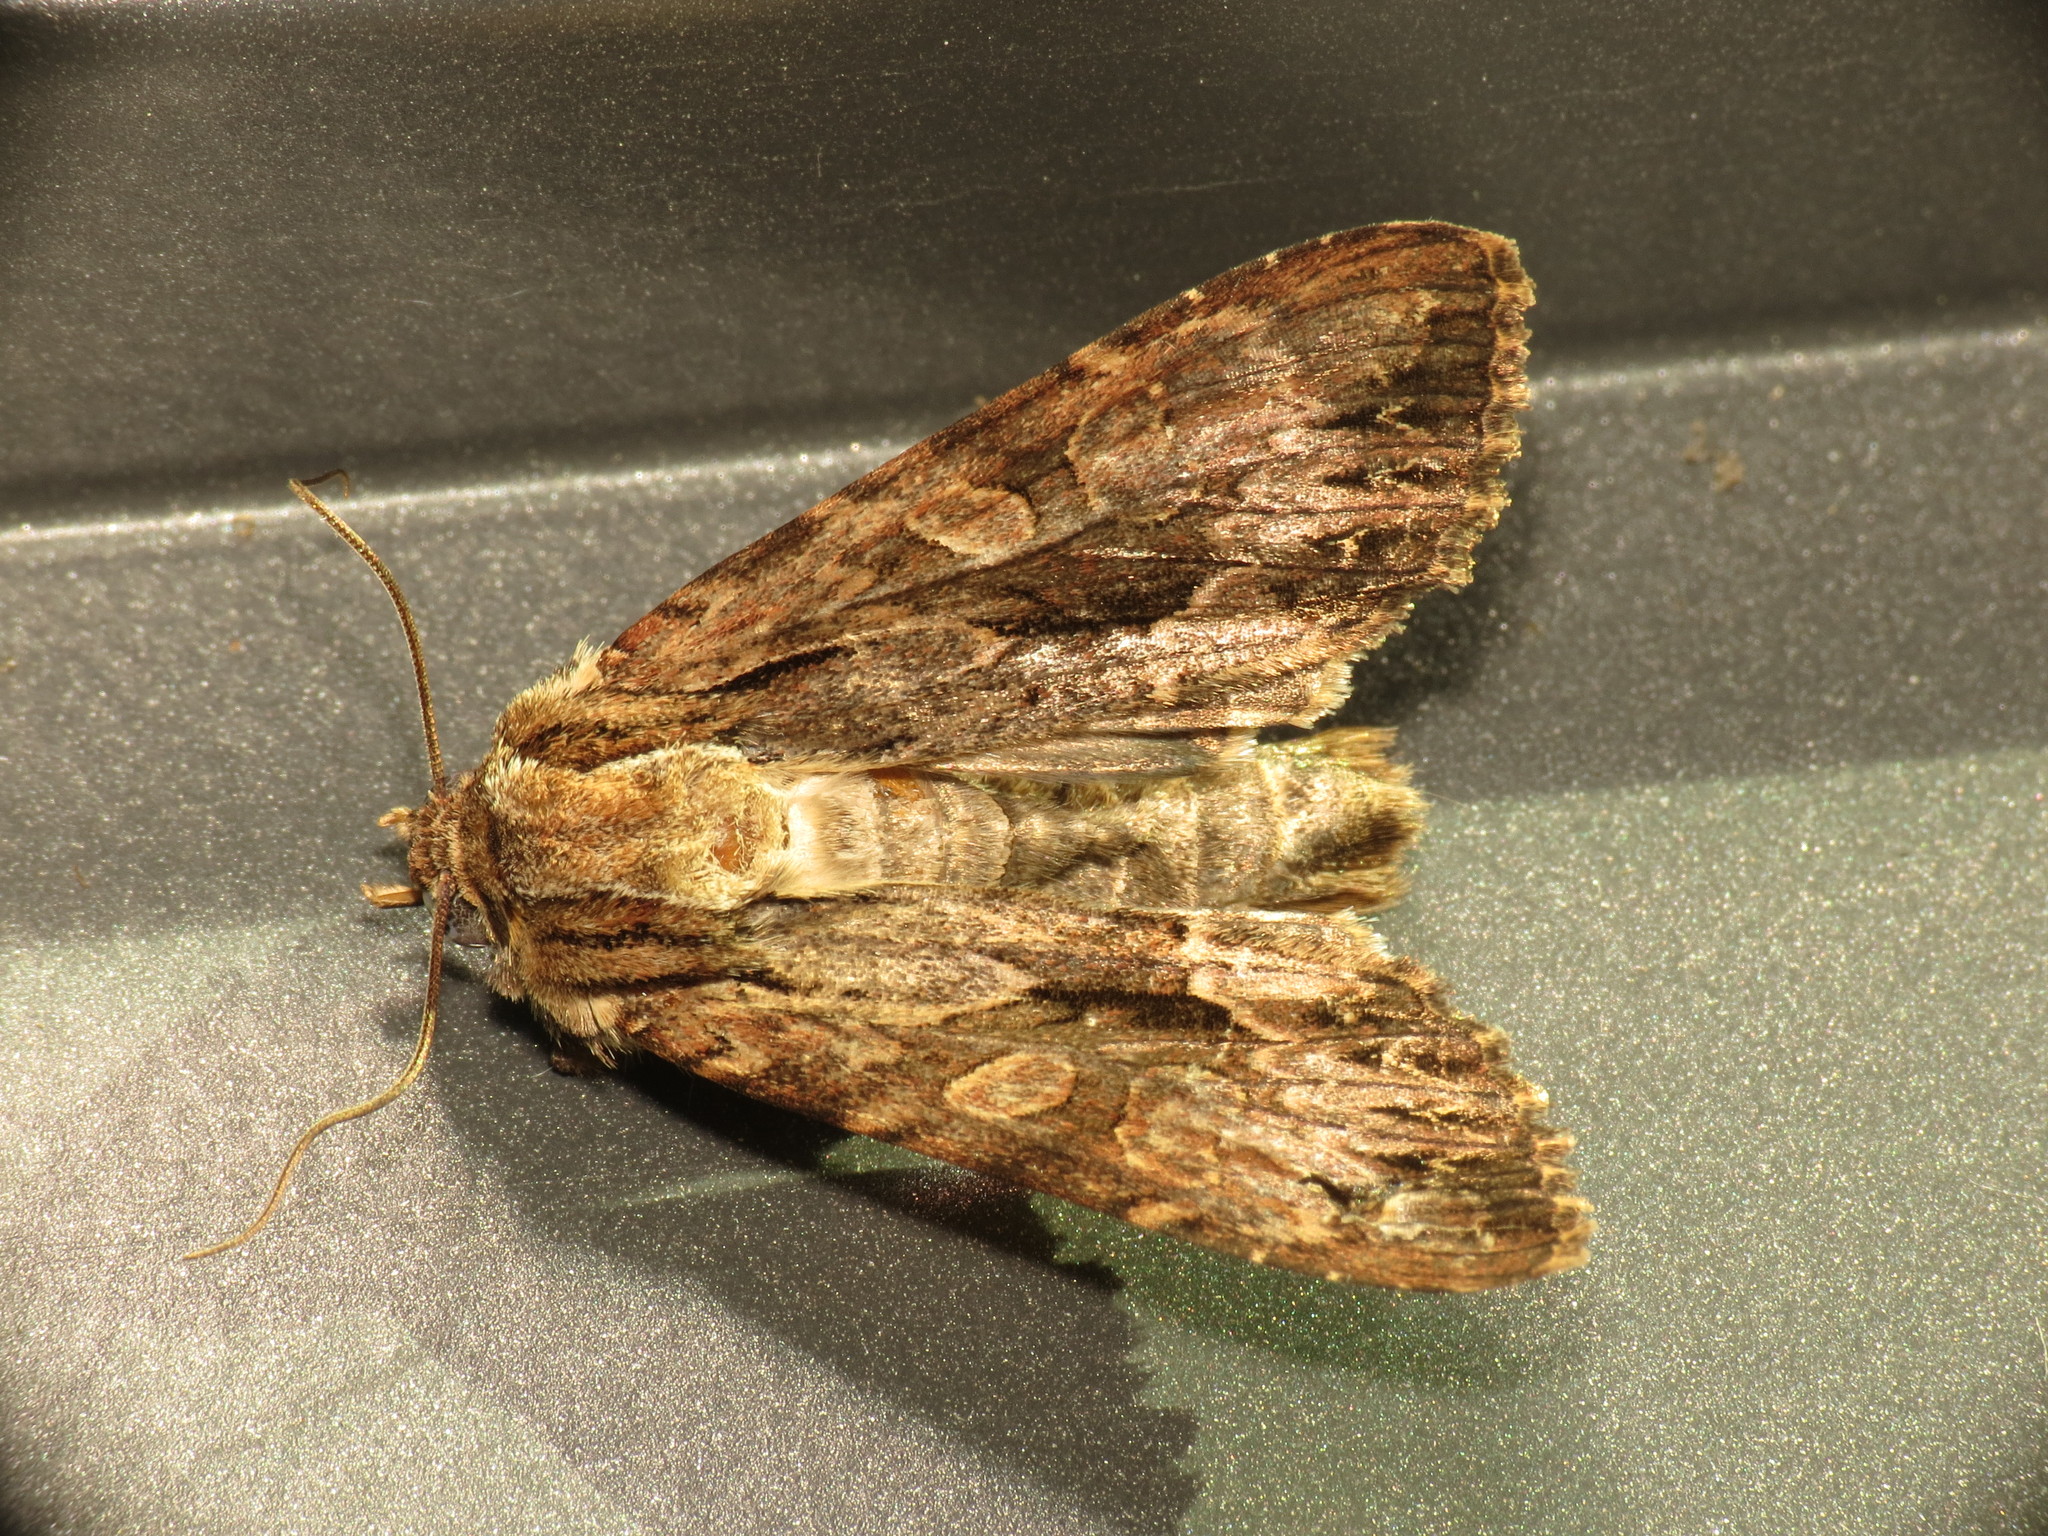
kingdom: Animalia
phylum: Arthropoda
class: Insecta
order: Lepidoptera
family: Noctuidae
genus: Apamea
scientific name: Apamea monoglypha
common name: Dark arches
